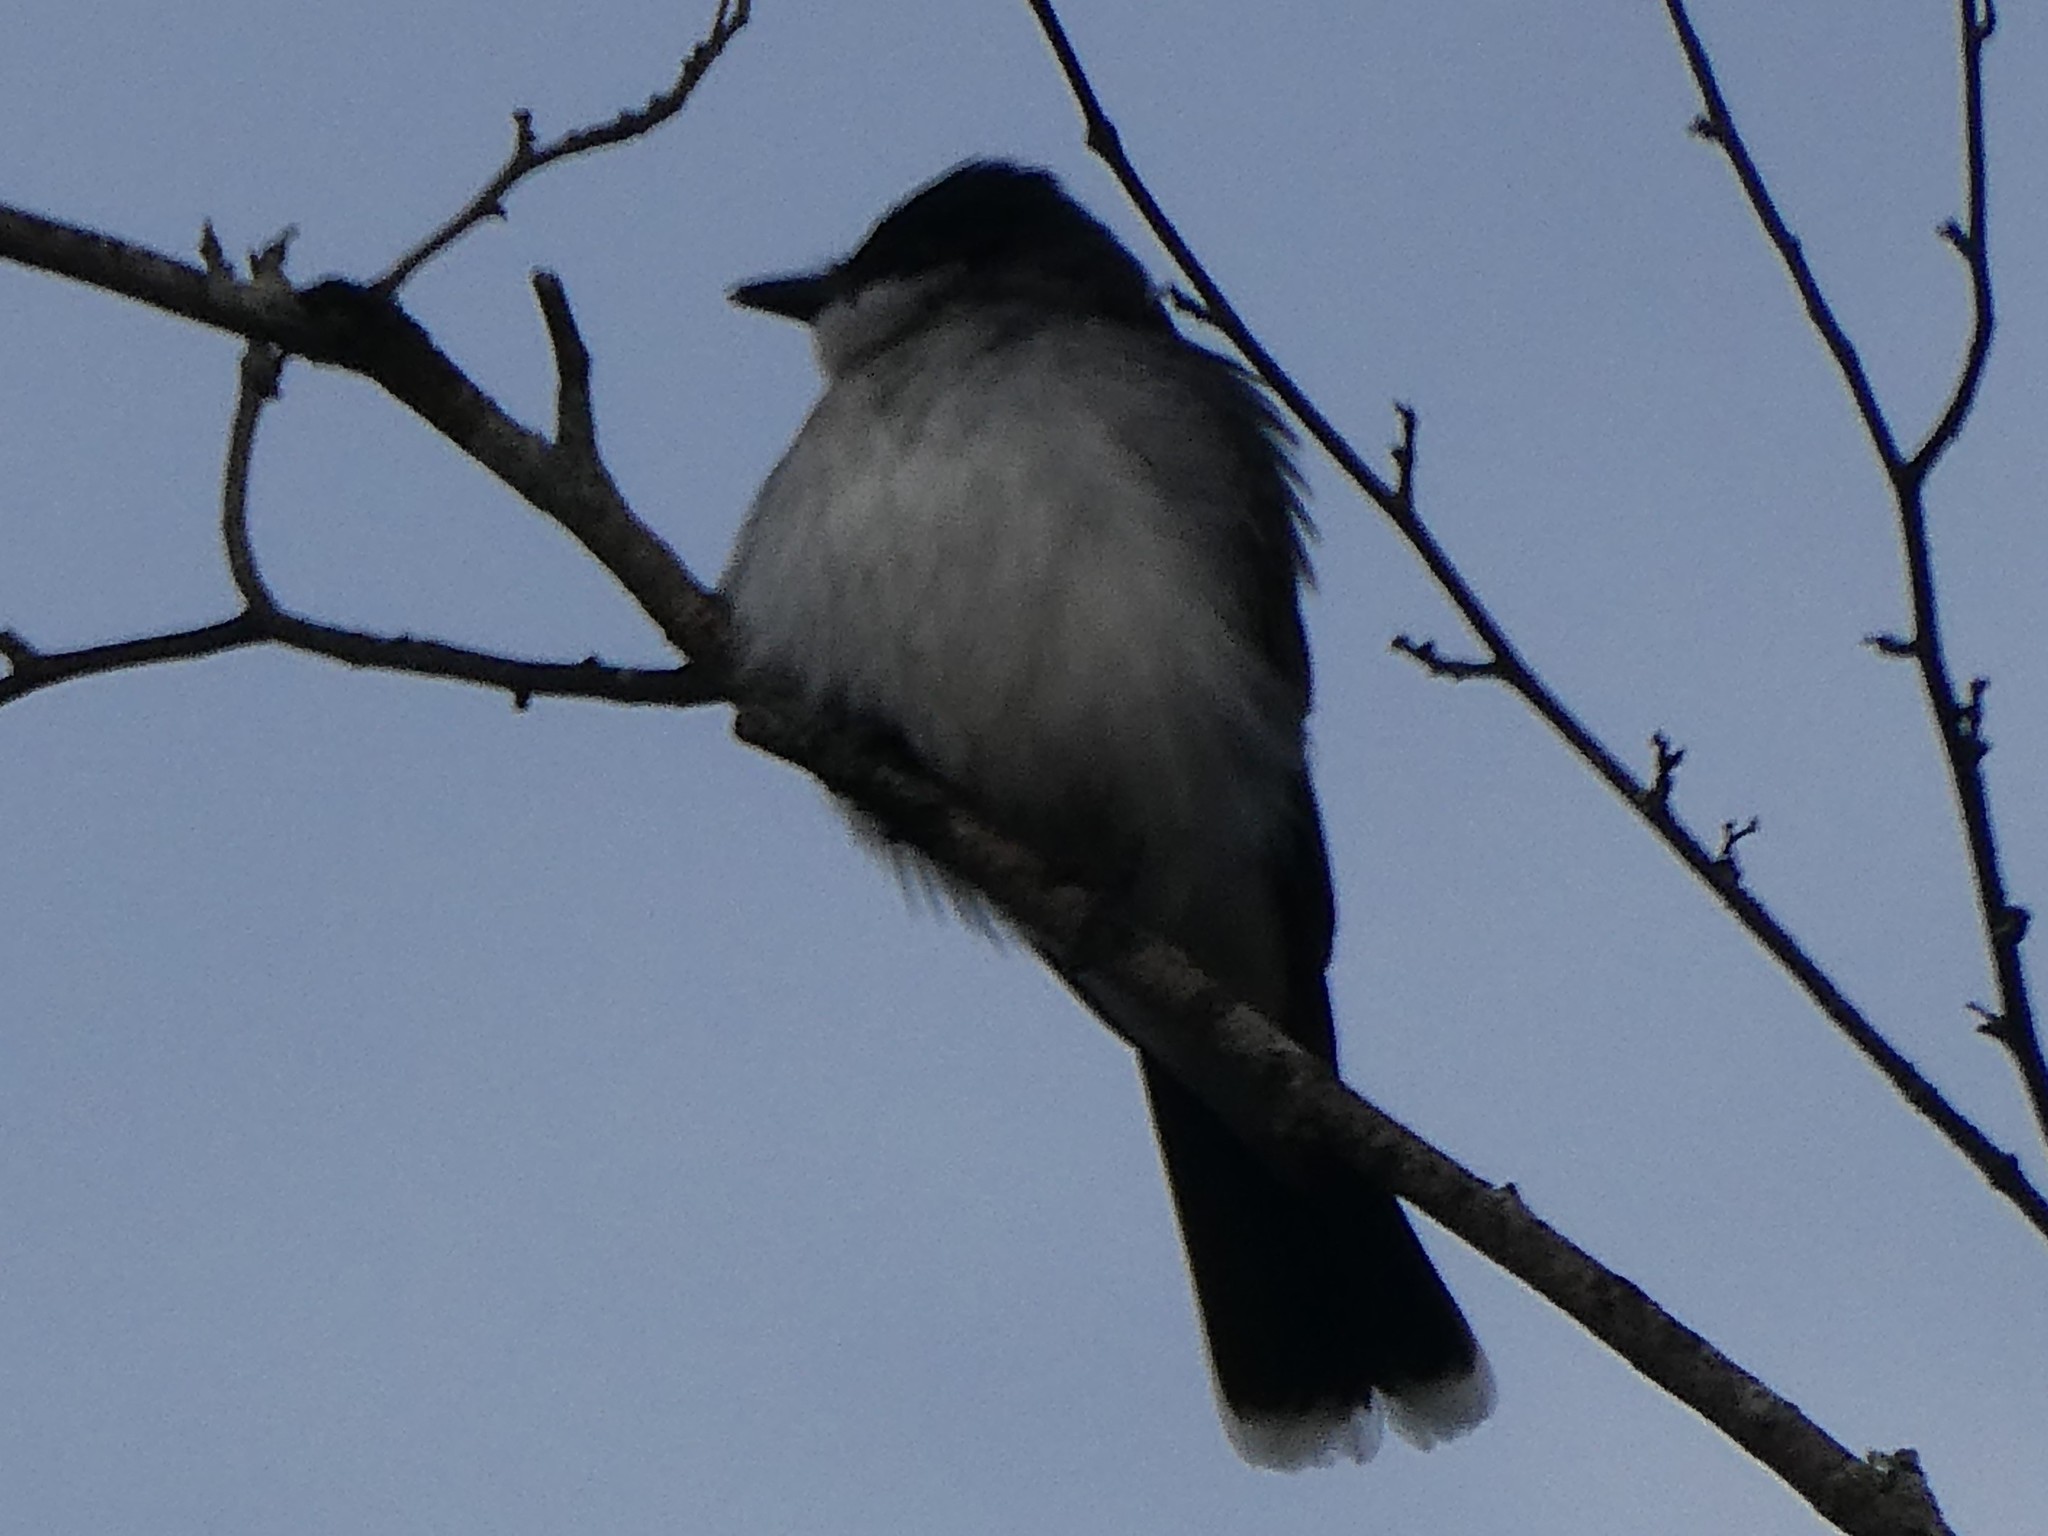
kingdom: Animalia
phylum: Chordata
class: Aves
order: Passeriformes
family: Tyrannidae
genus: Tyrannus
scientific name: Tyrannus tyrannus
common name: Eastern kingbird
